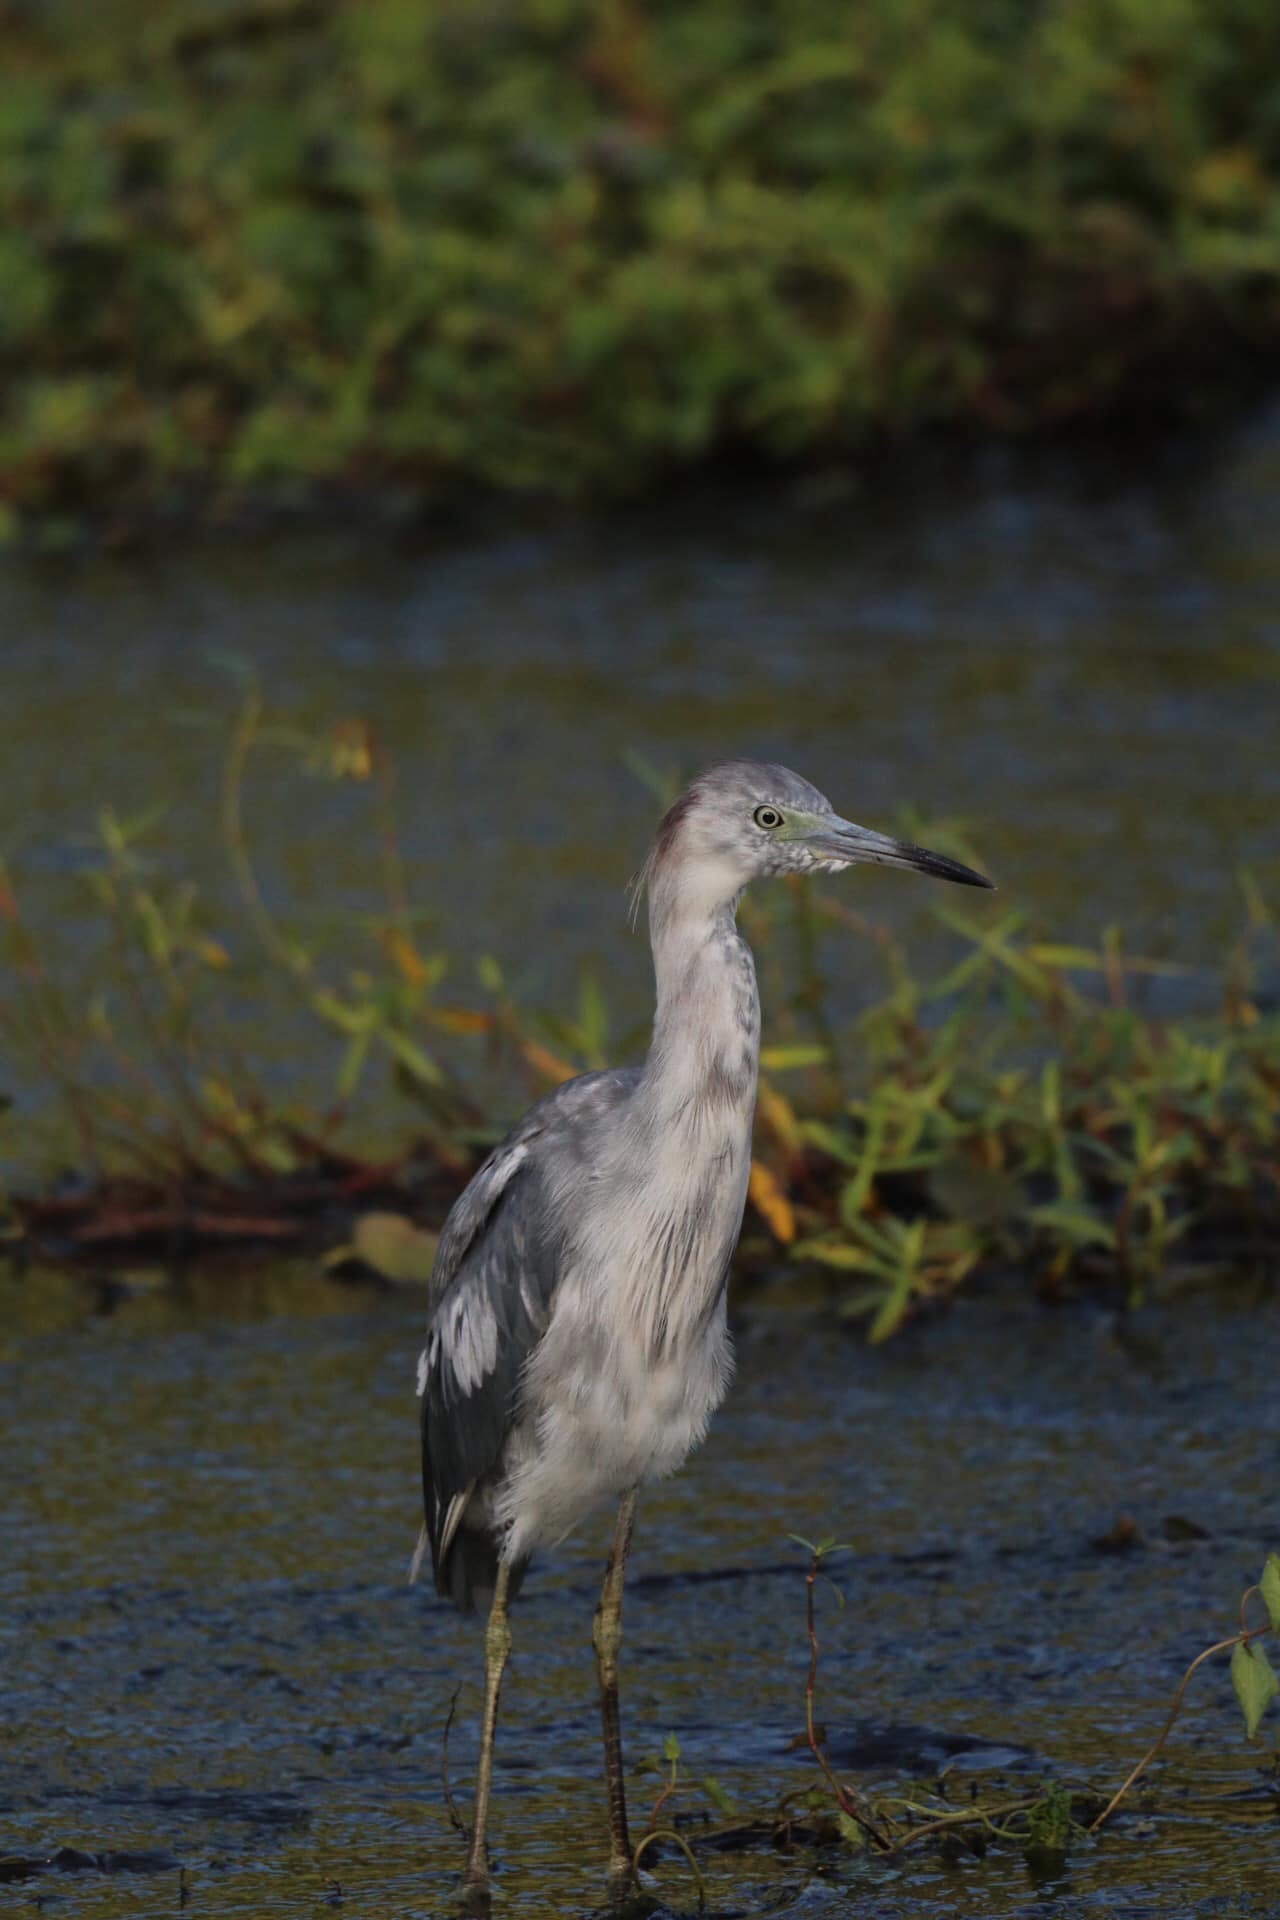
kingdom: Animalia
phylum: Chordata
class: Aves
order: Pelecaniformes
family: Ardeidae
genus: Egretta
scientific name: Egretta caerulea
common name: Little blue heron
